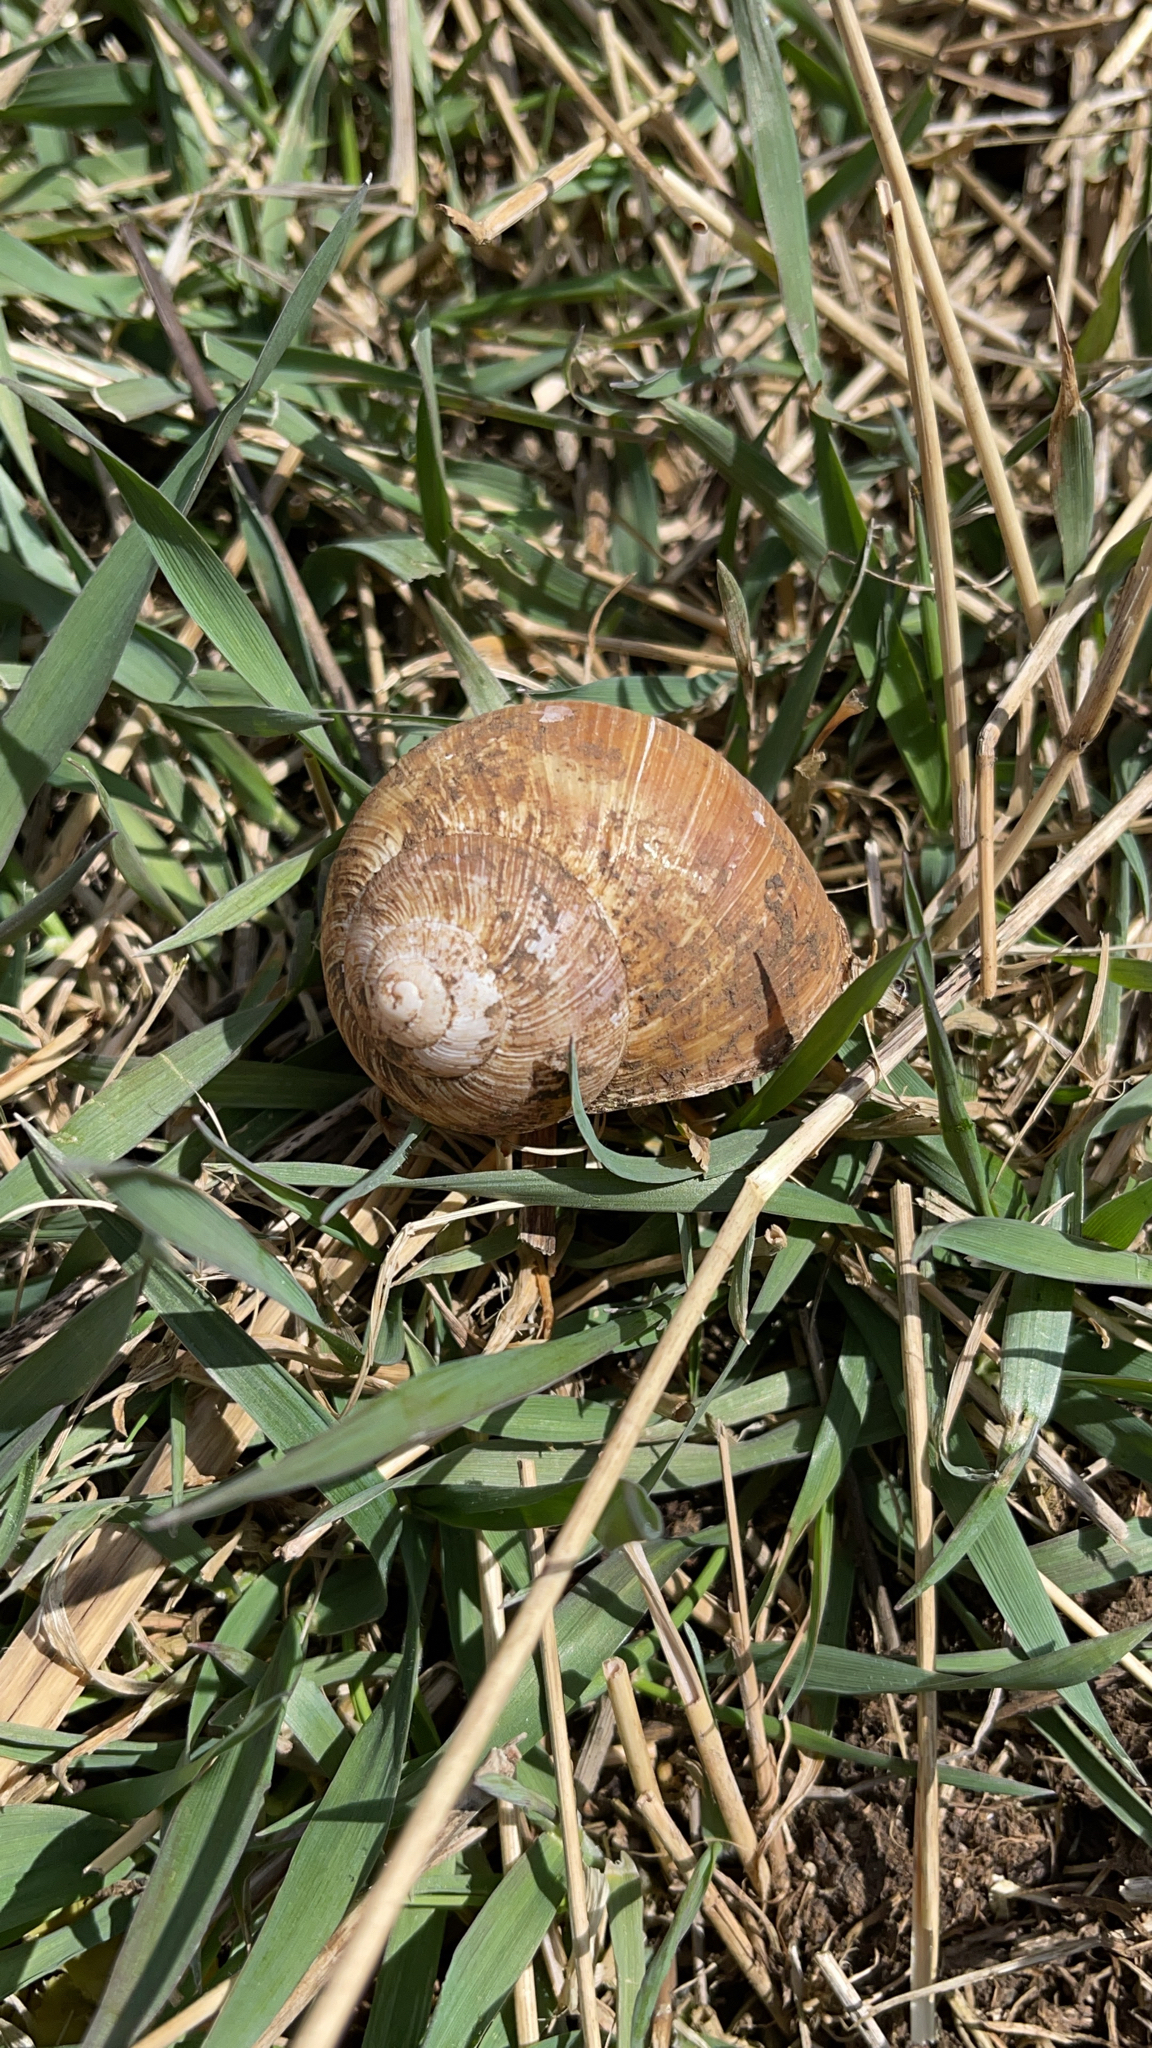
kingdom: Animalia
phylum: Mollusca
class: Gastropoda
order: Stylommatophora
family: Helicidae
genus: Helix
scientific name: Helix pomatia
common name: Roman snail
